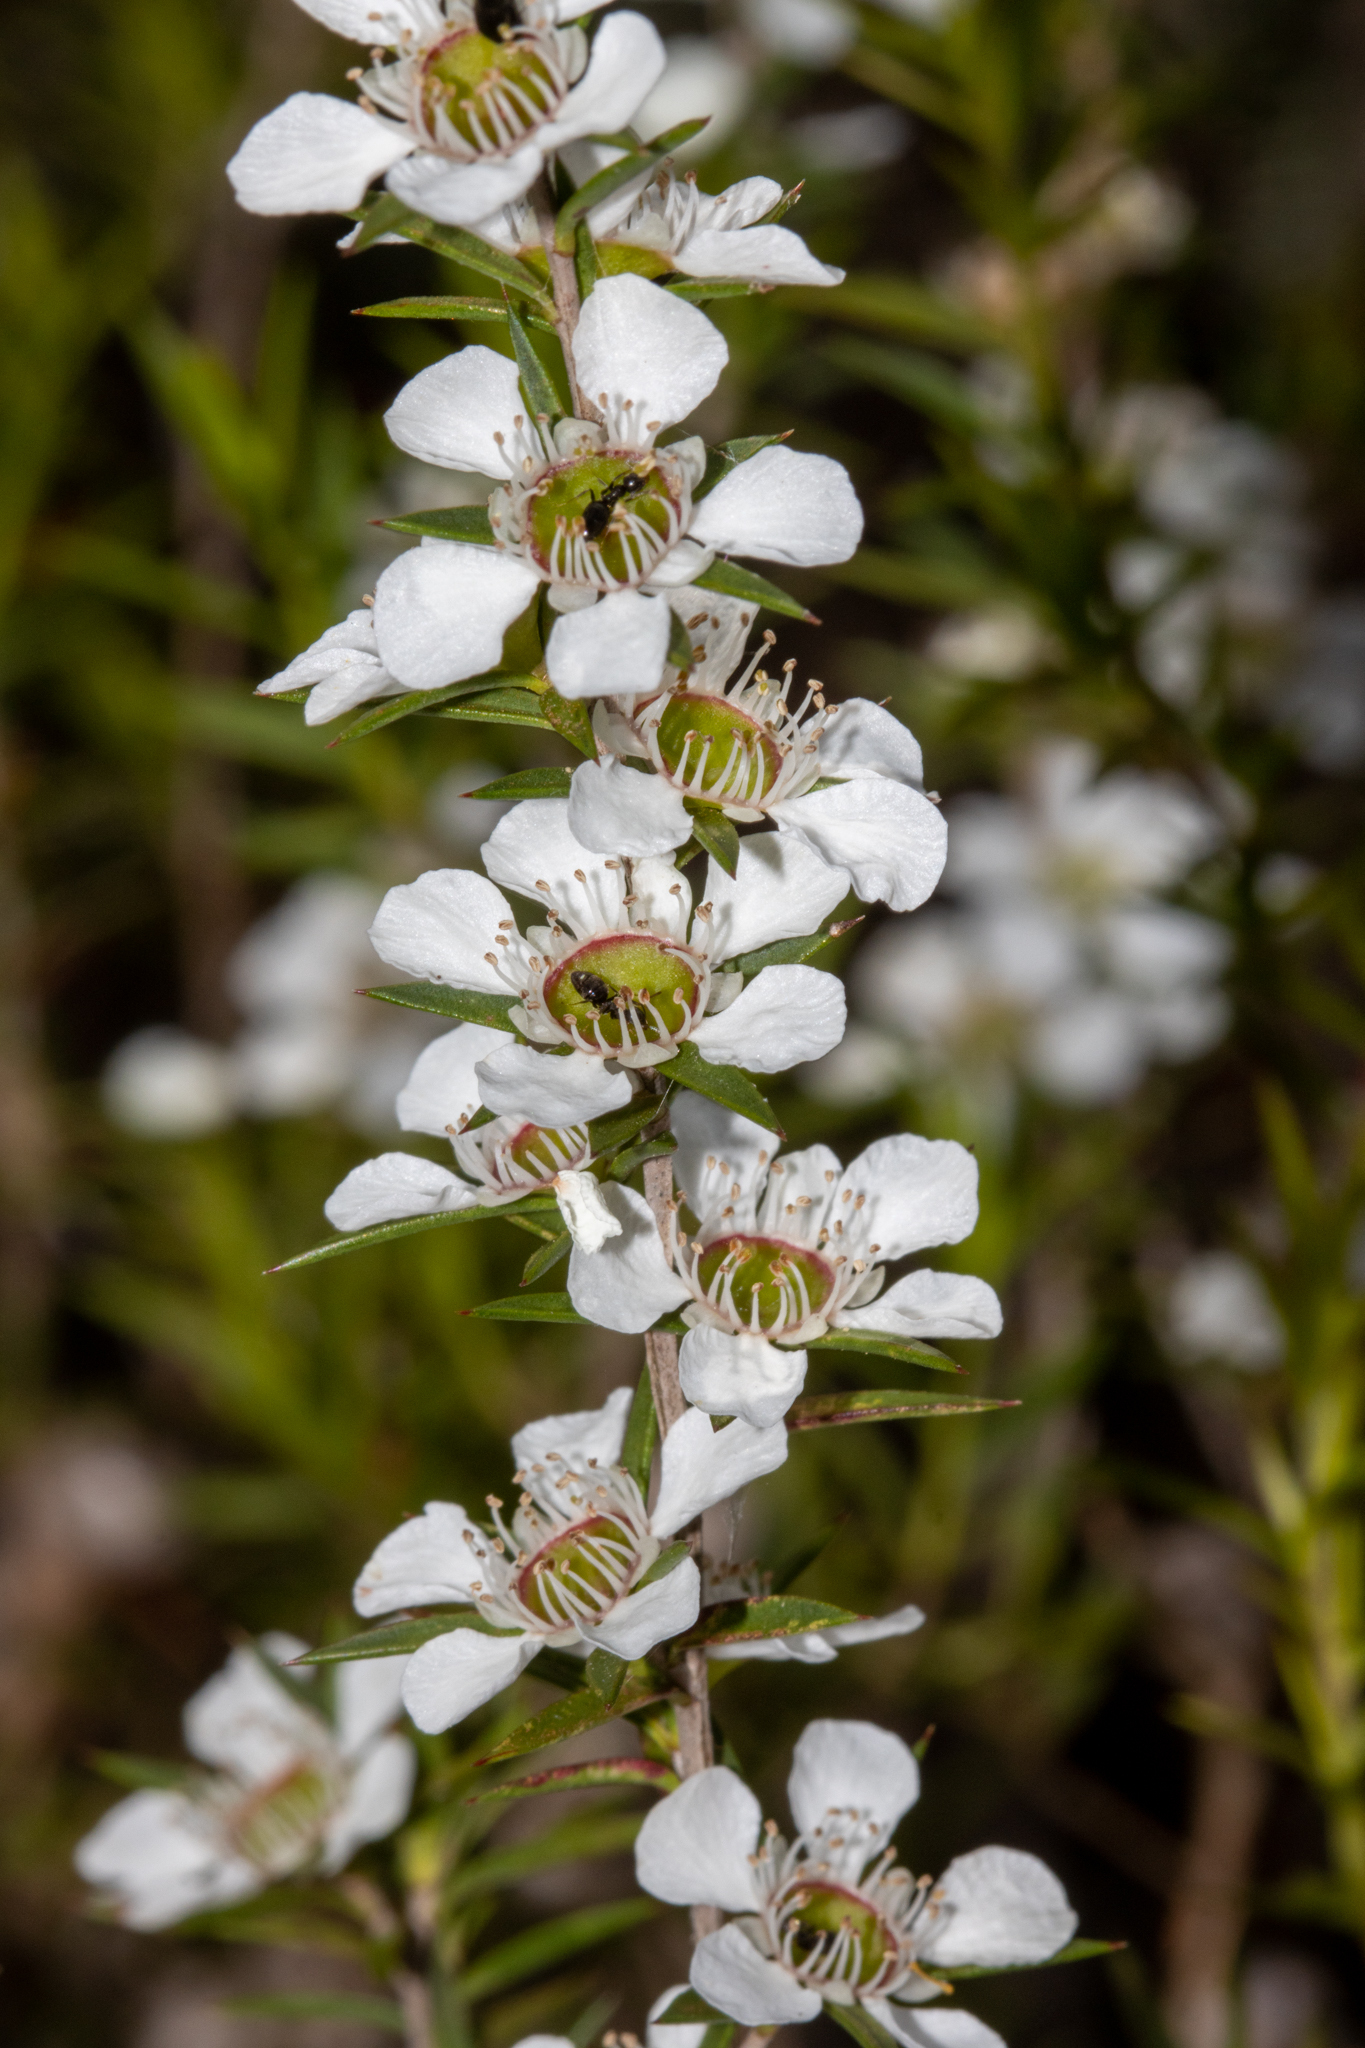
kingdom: Plantae
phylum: Tracheophyta
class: Magnoliopsida
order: Myrtales
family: Myrtaceae
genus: Leptospermum
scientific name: Leptospermum continentale
